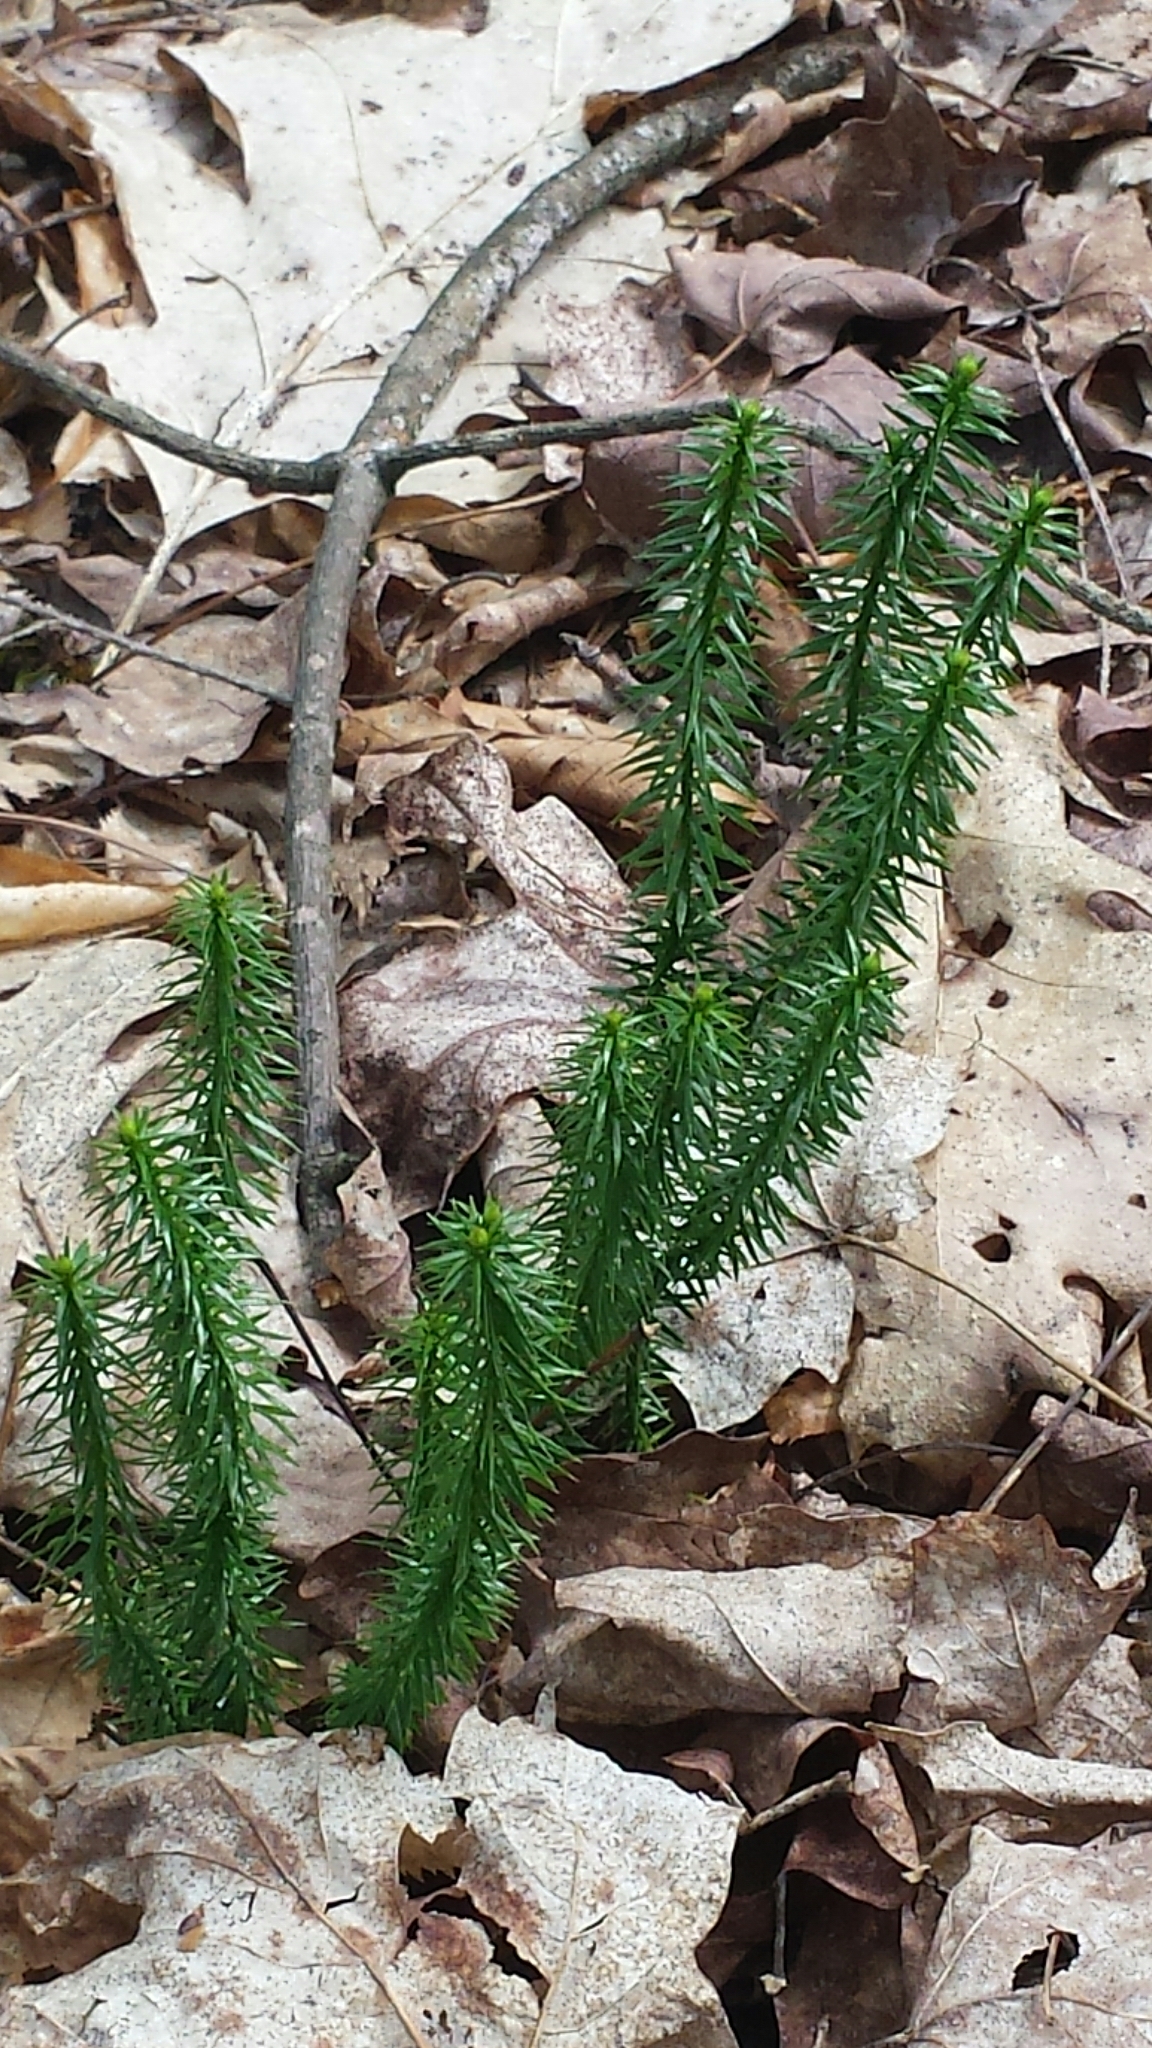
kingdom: Plantae
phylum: Tracheophyta
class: Lycopodiopsida
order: Lycopodiales
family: Lycopodiaceae
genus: Spinulum
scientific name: Spinulum annotinum
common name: Interrupted club-moss
